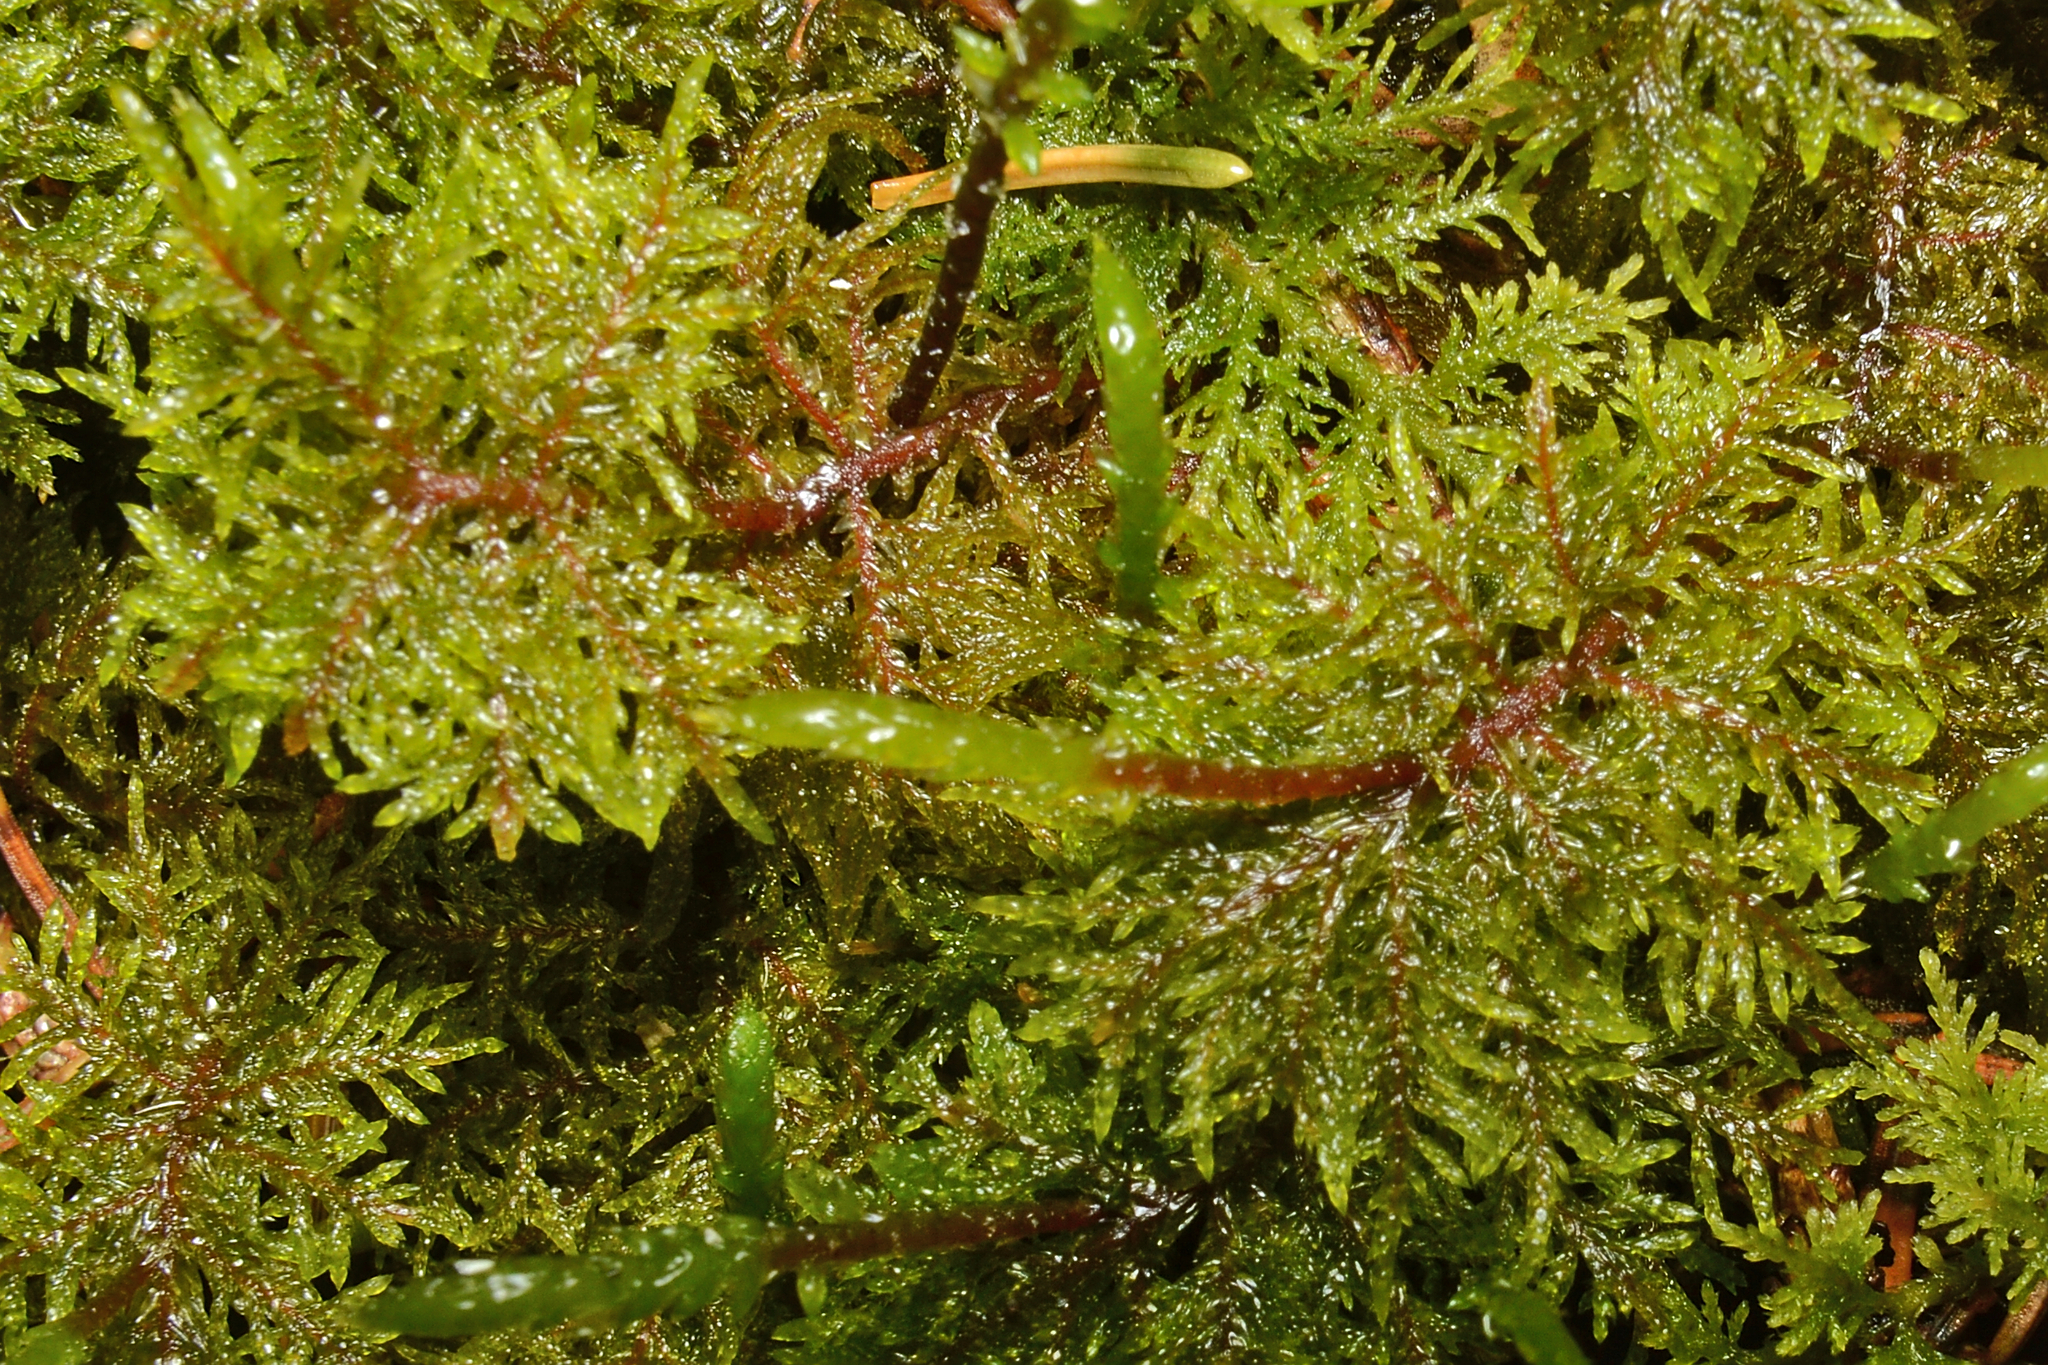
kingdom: Plantae
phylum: Bryophyta
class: Bryopsida
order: Hypnales
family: Hylocomiaceae
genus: Hylocomium
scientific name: Hylocomium splendens
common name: Stairstep moss
